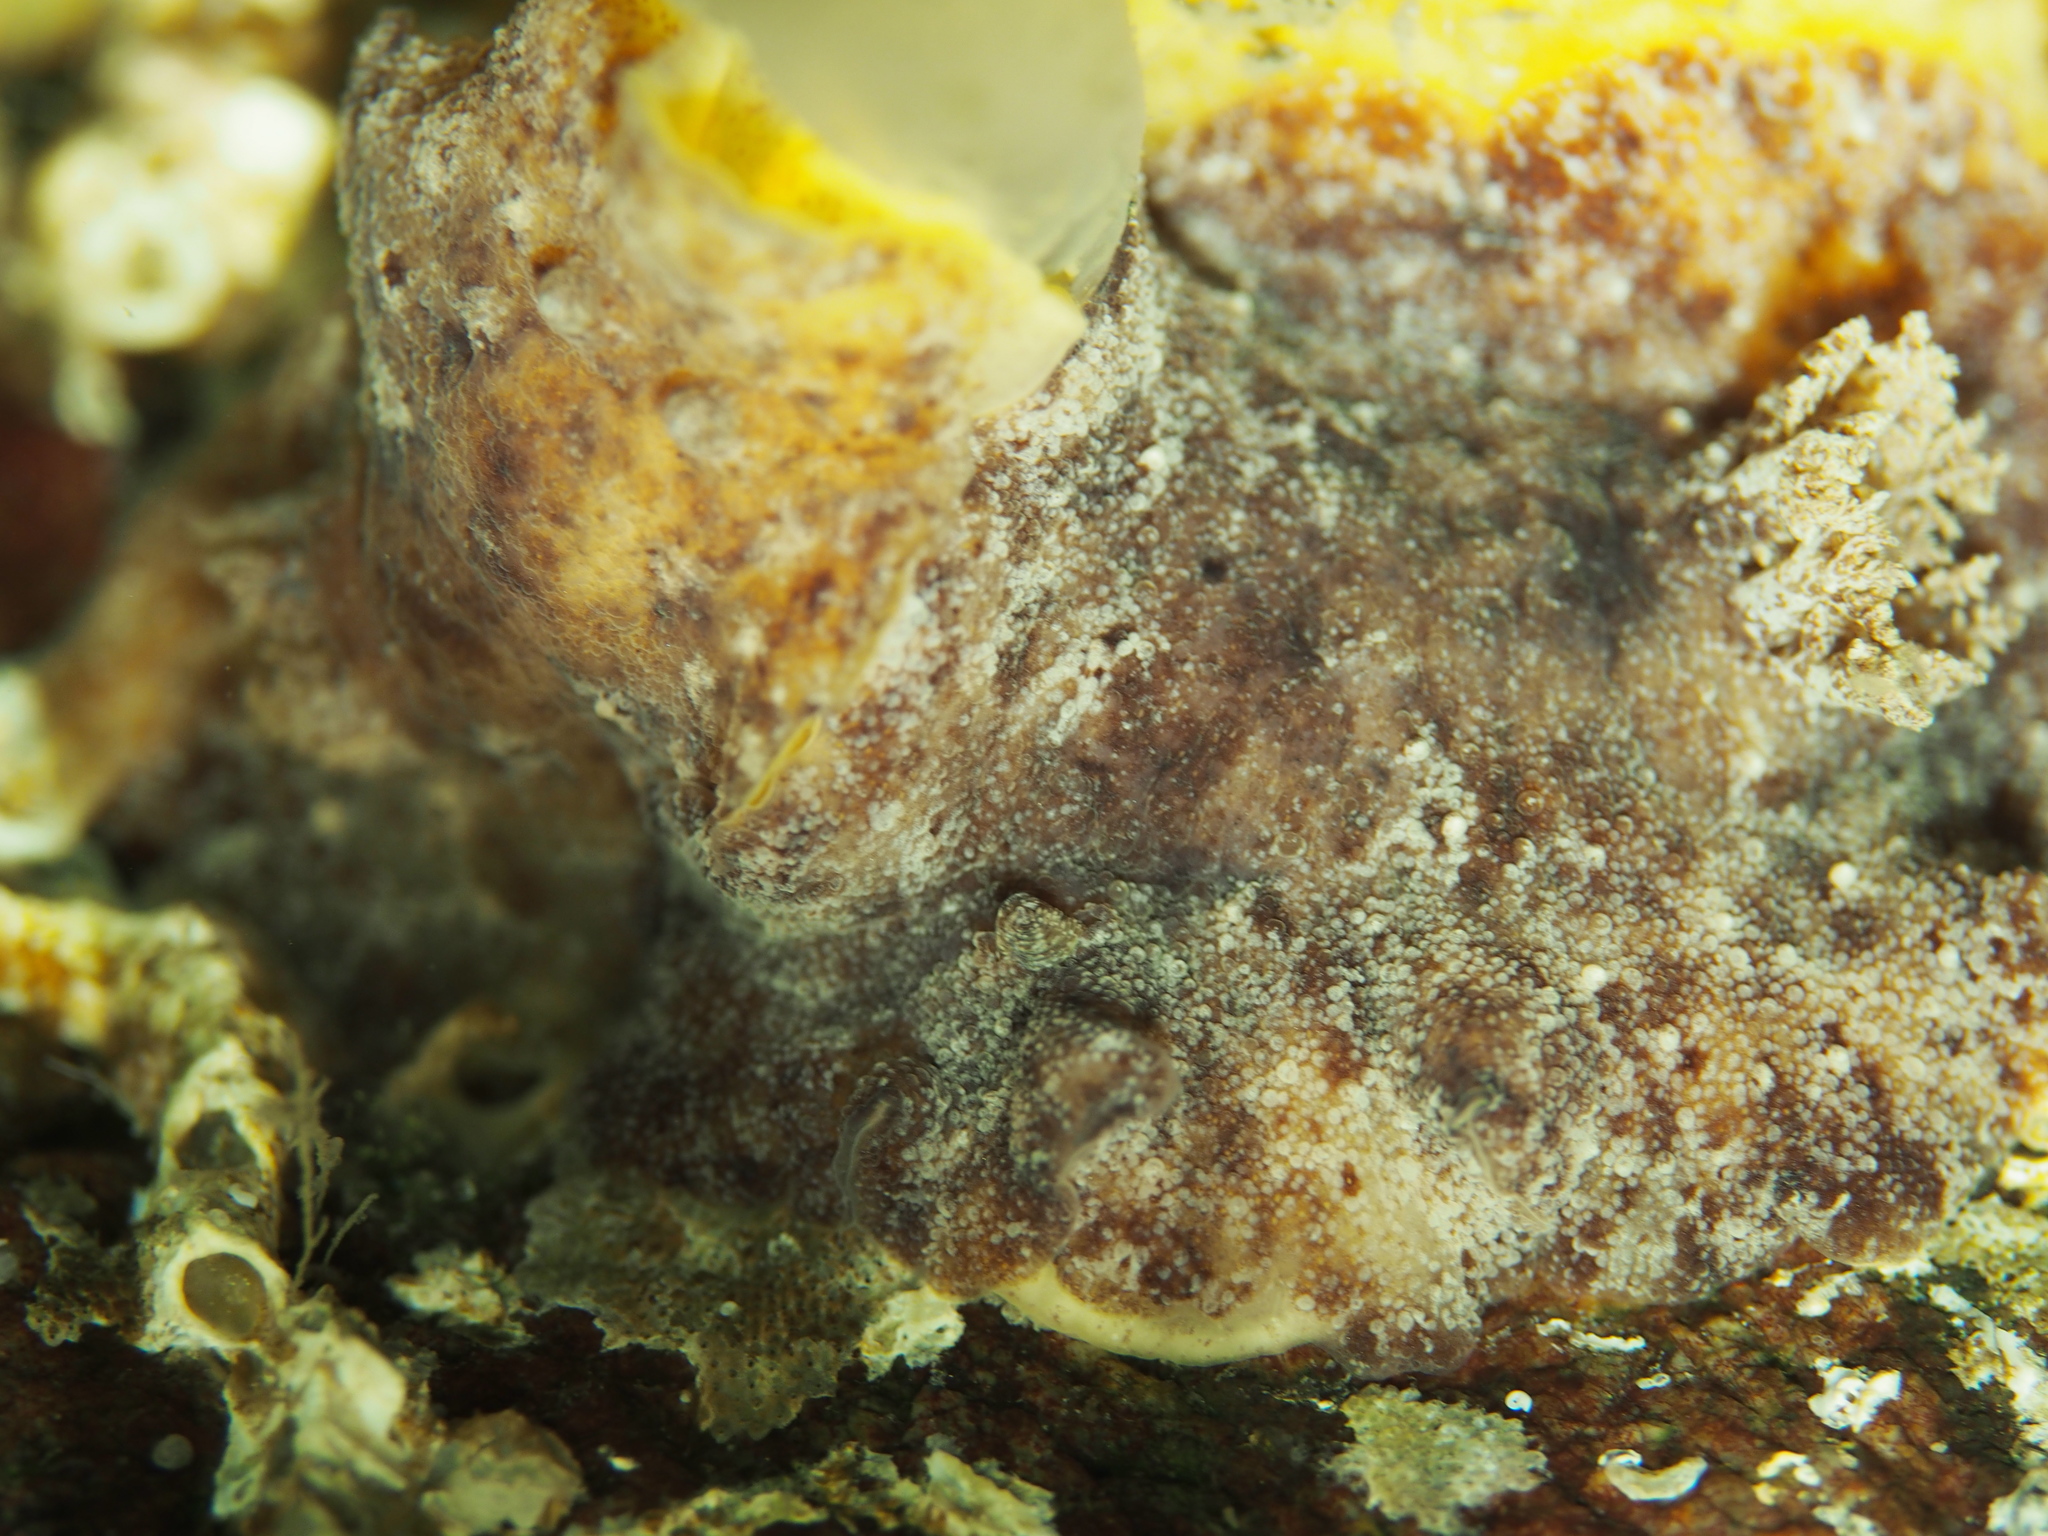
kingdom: Animalia
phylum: Mollusca
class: Gastropoda
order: Nudibranchia
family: Discodorididae
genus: Geitodoris
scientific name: Geitodoris planata
